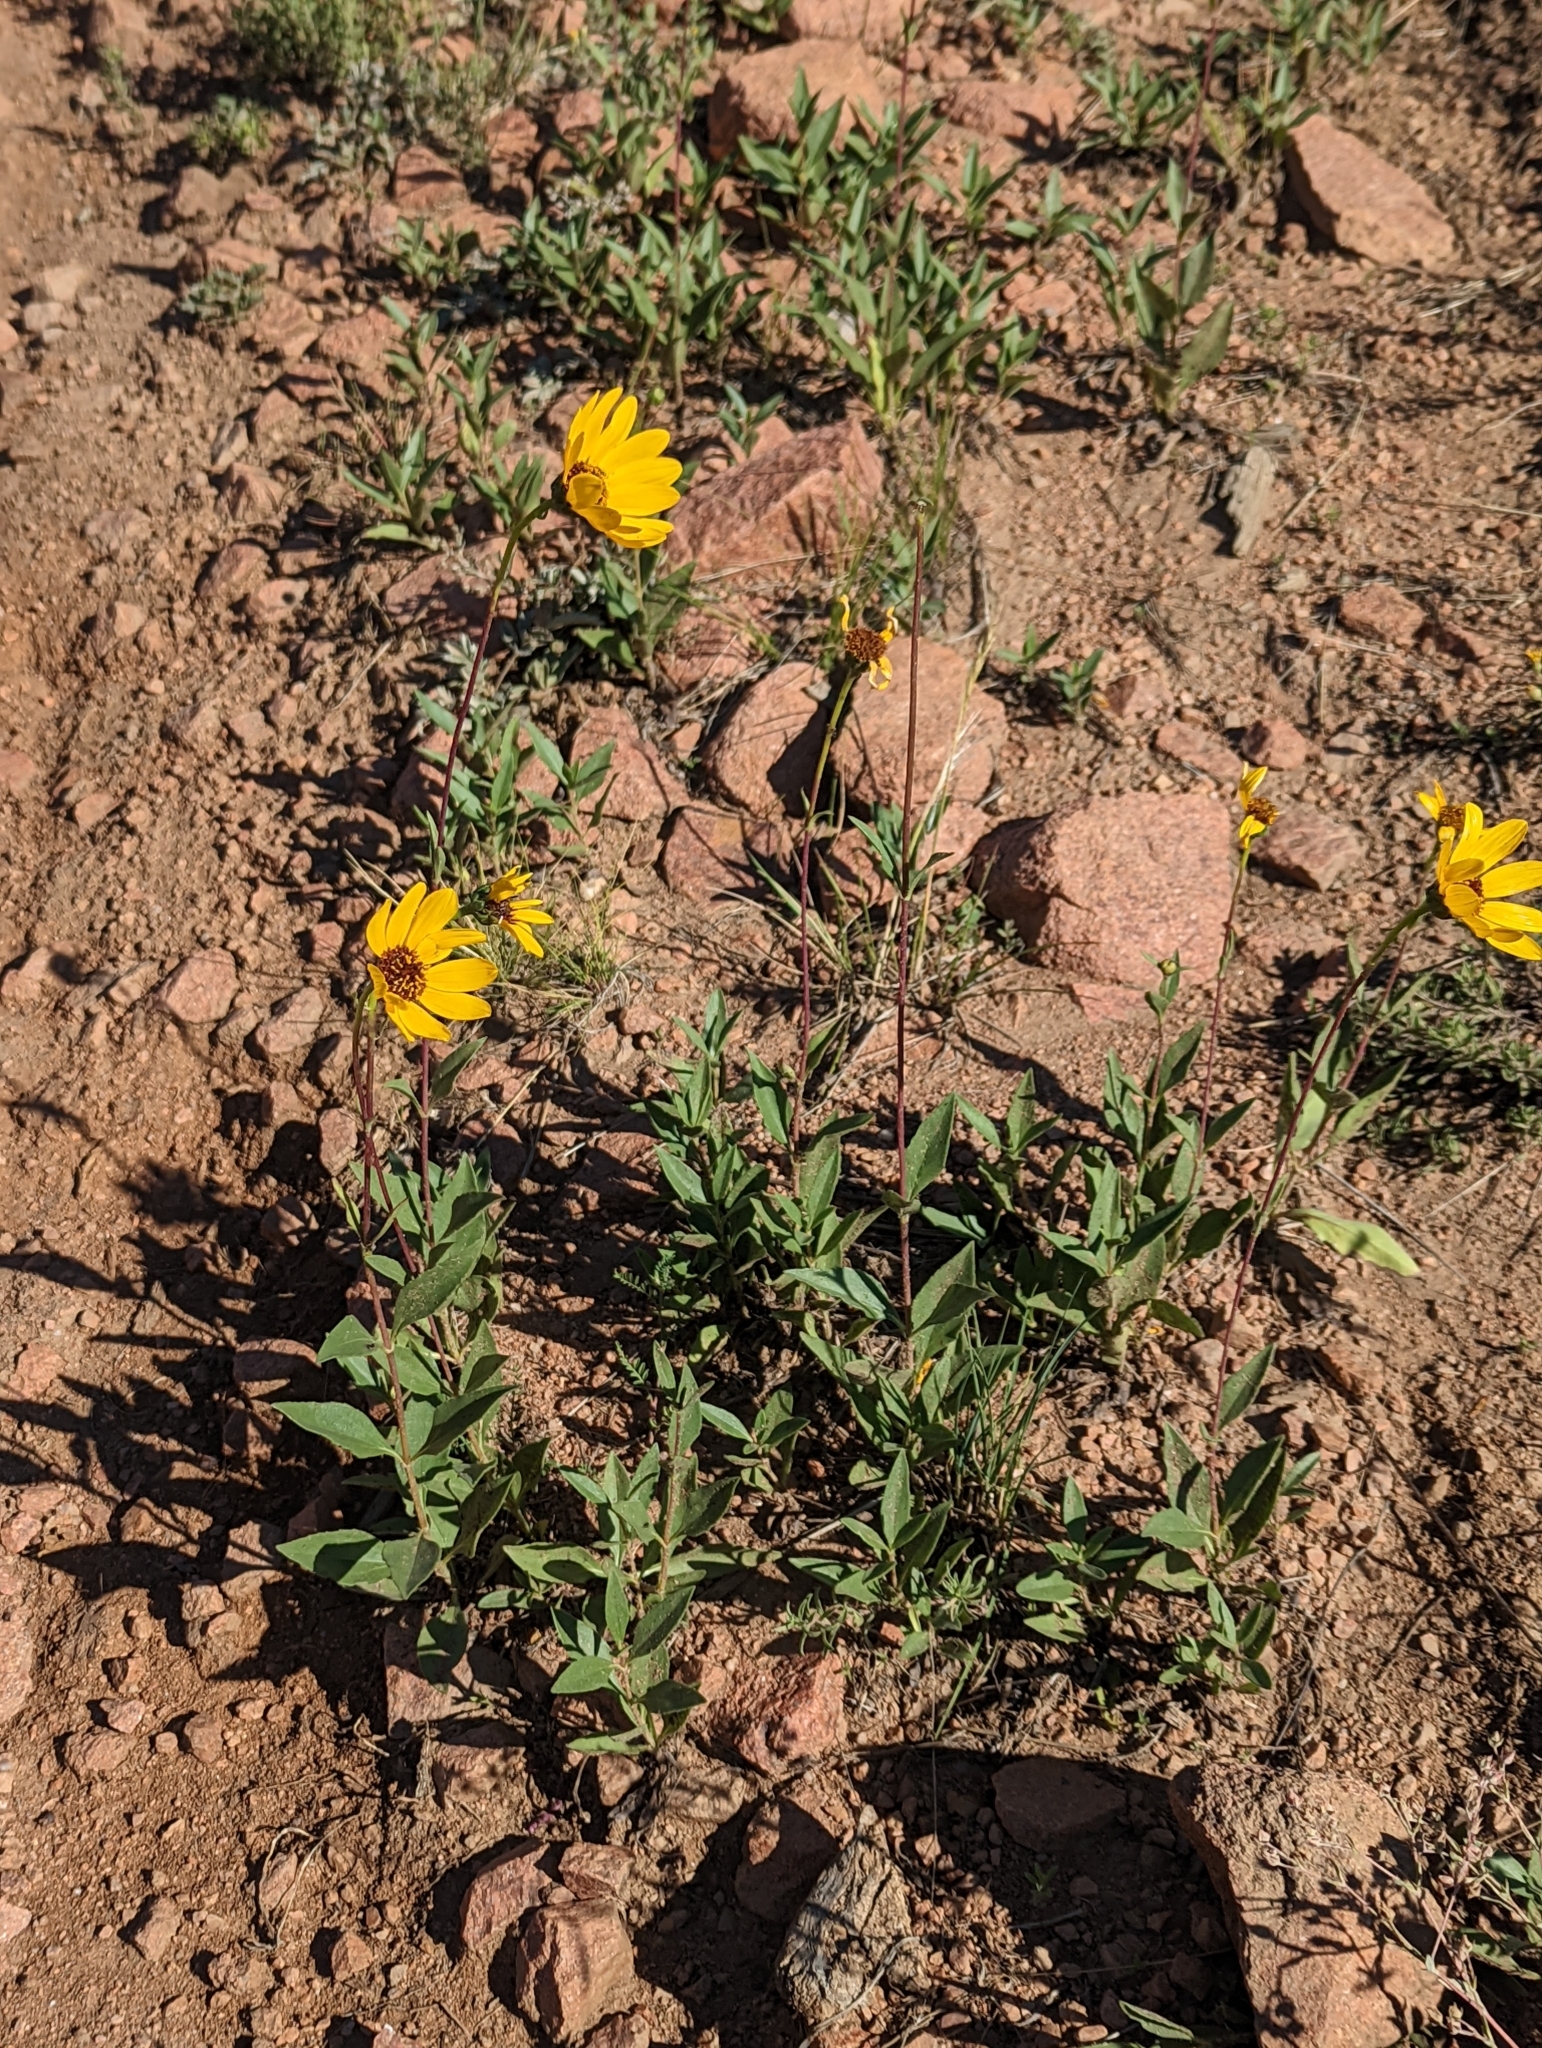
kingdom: Plantae
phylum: Tracheophyta
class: Magnoliopsida
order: Asterales
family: Asteraceae
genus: Helianthus
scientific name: Helianthus petiolaris
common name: Lesser sunflower
